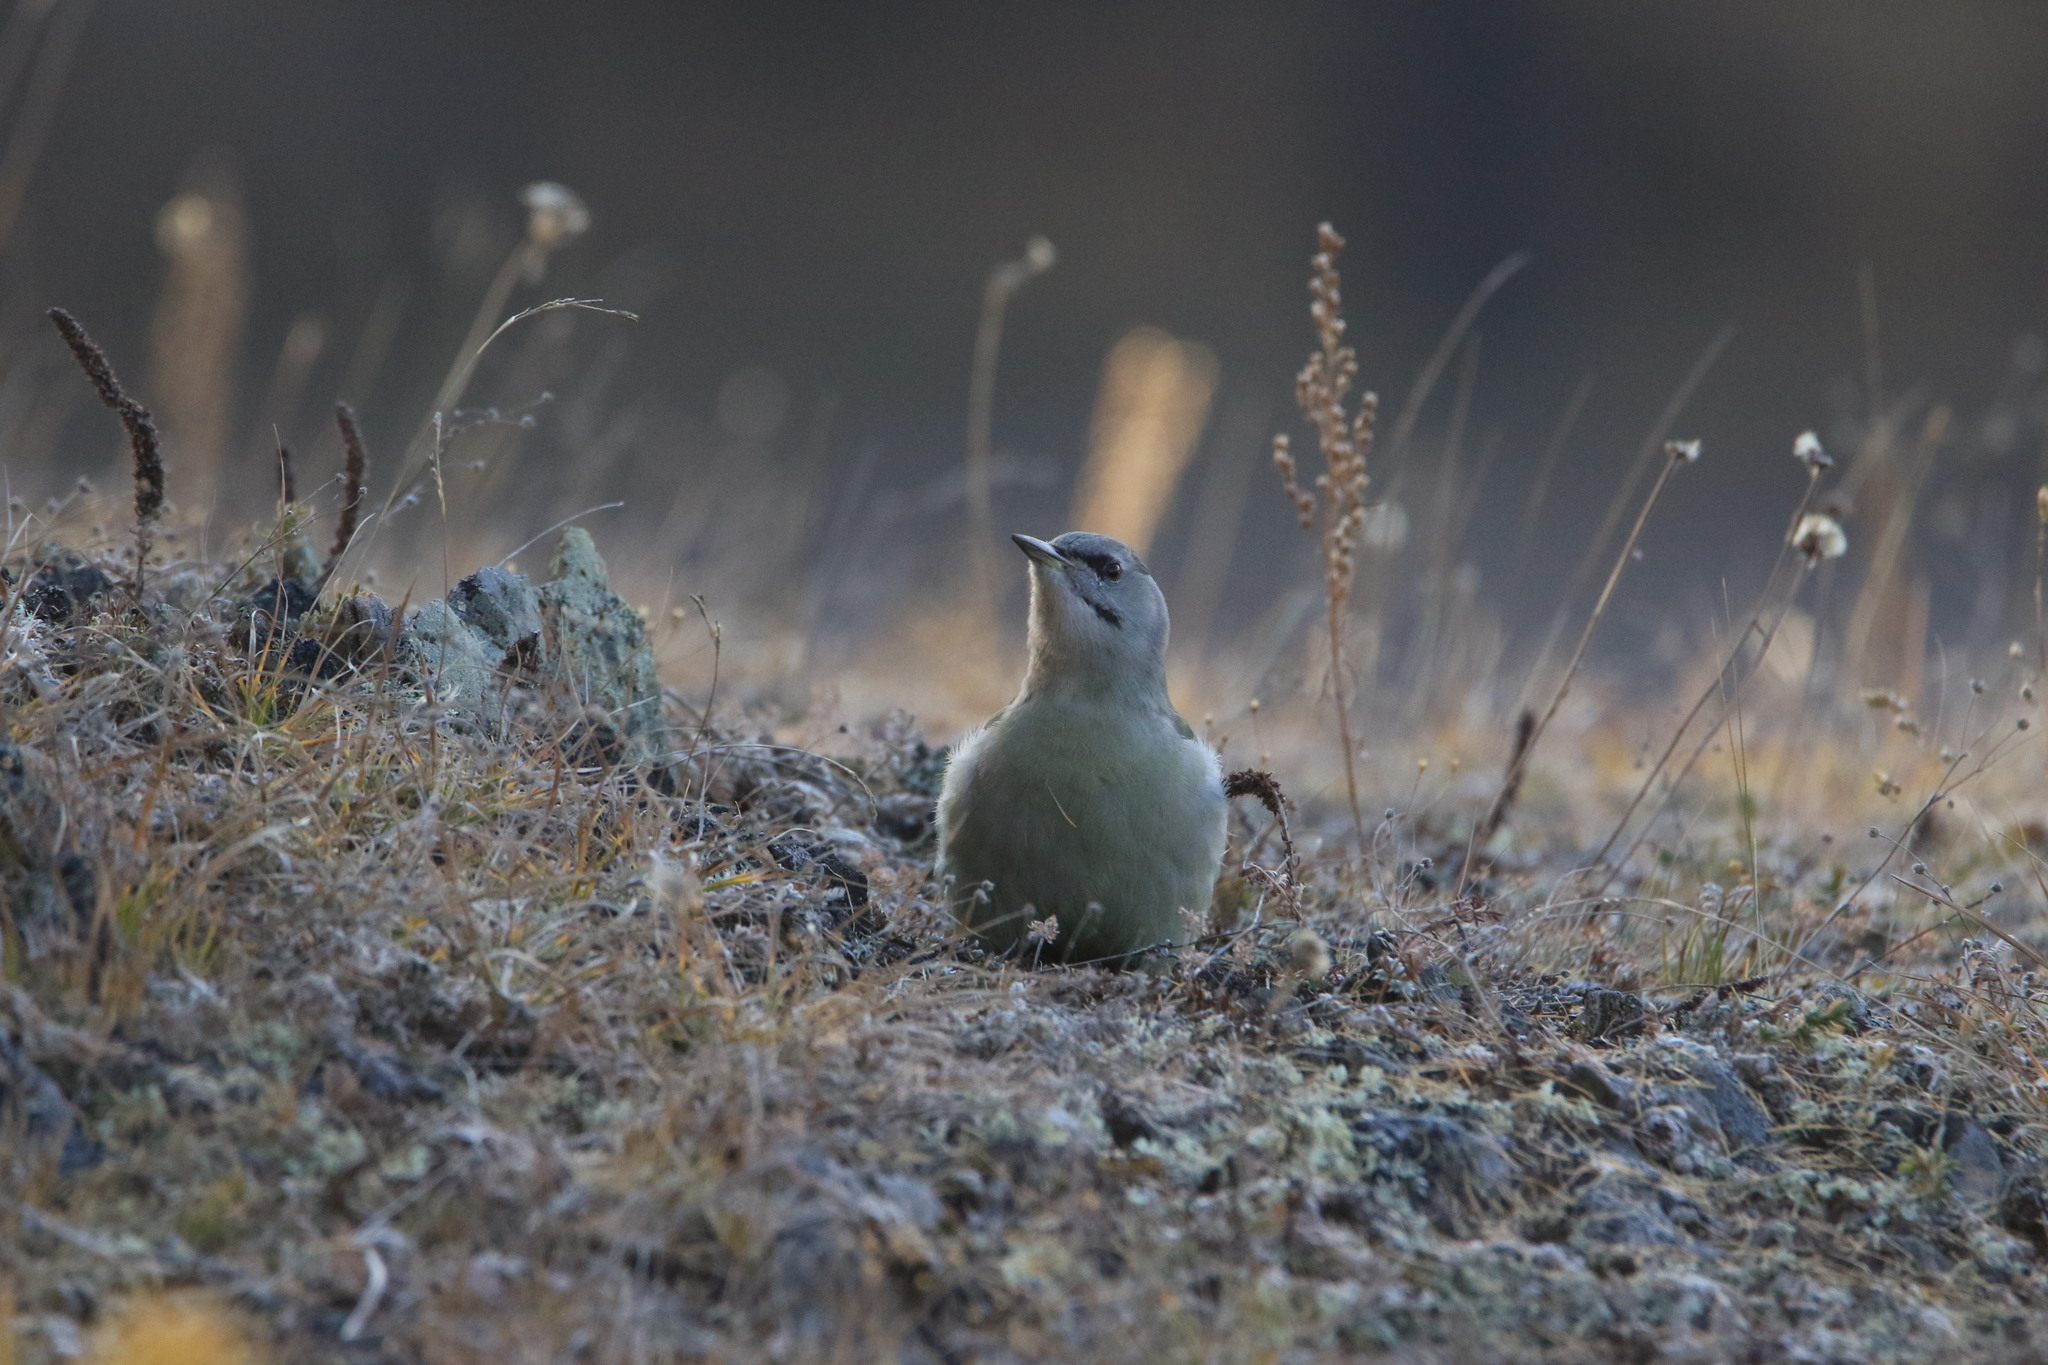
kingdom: Animalia
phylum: Chordata
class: Aves
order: Piciformes
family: Picidae
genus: Picus
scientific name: Picus canus
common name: Grey-headed woodpecker
